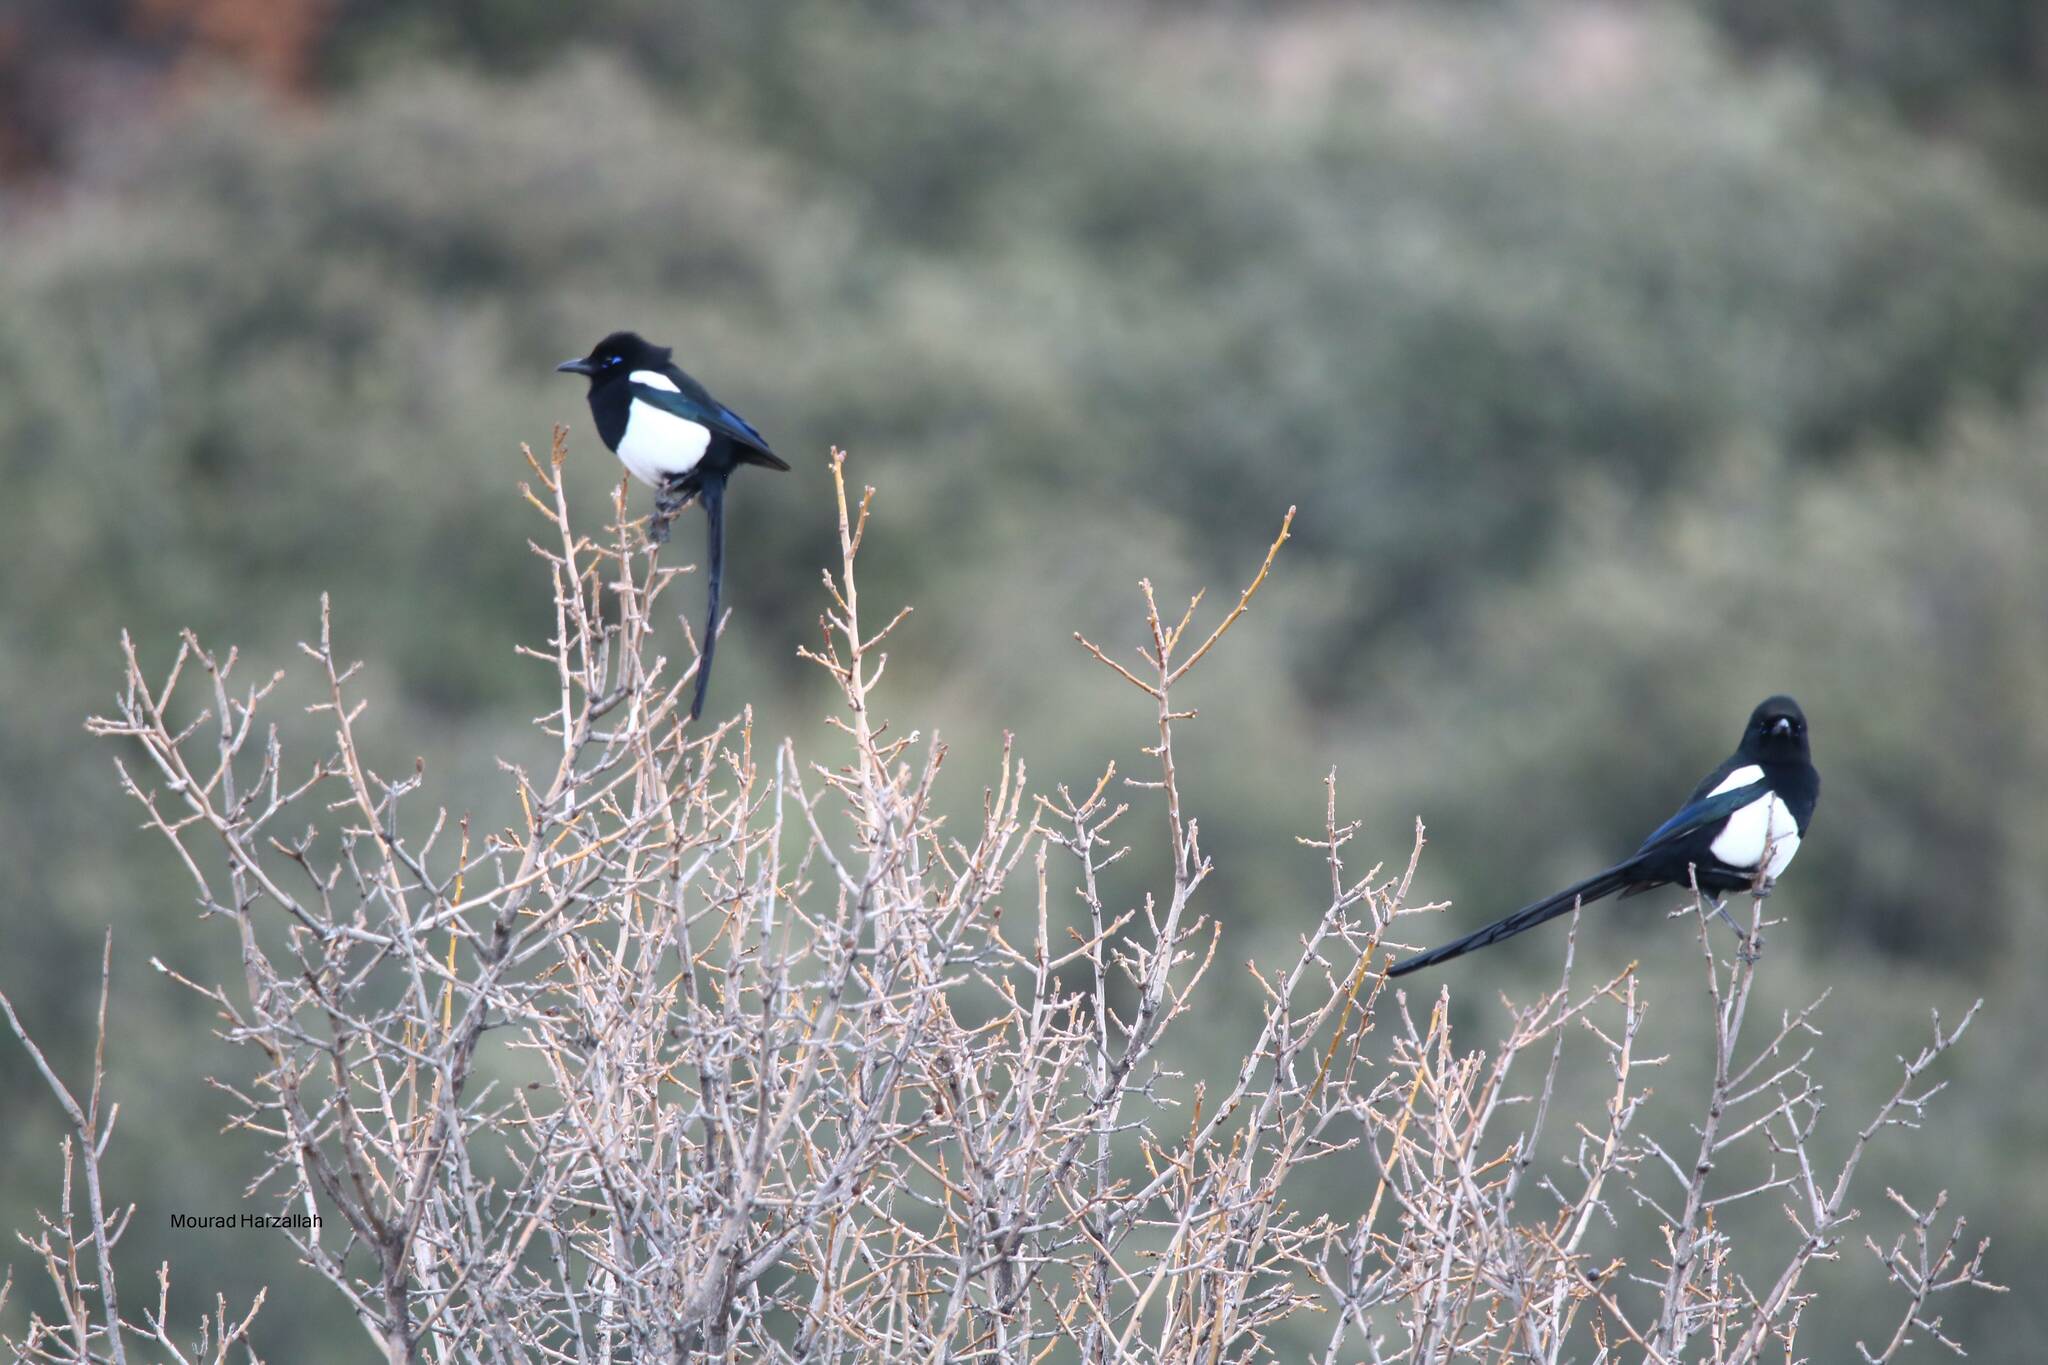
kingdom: Animalia
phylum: Chordata
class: Aves
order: Passeriformes
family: Corvidae
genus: Pica
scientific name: Pica mauritanica
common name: Maghreb magpie
